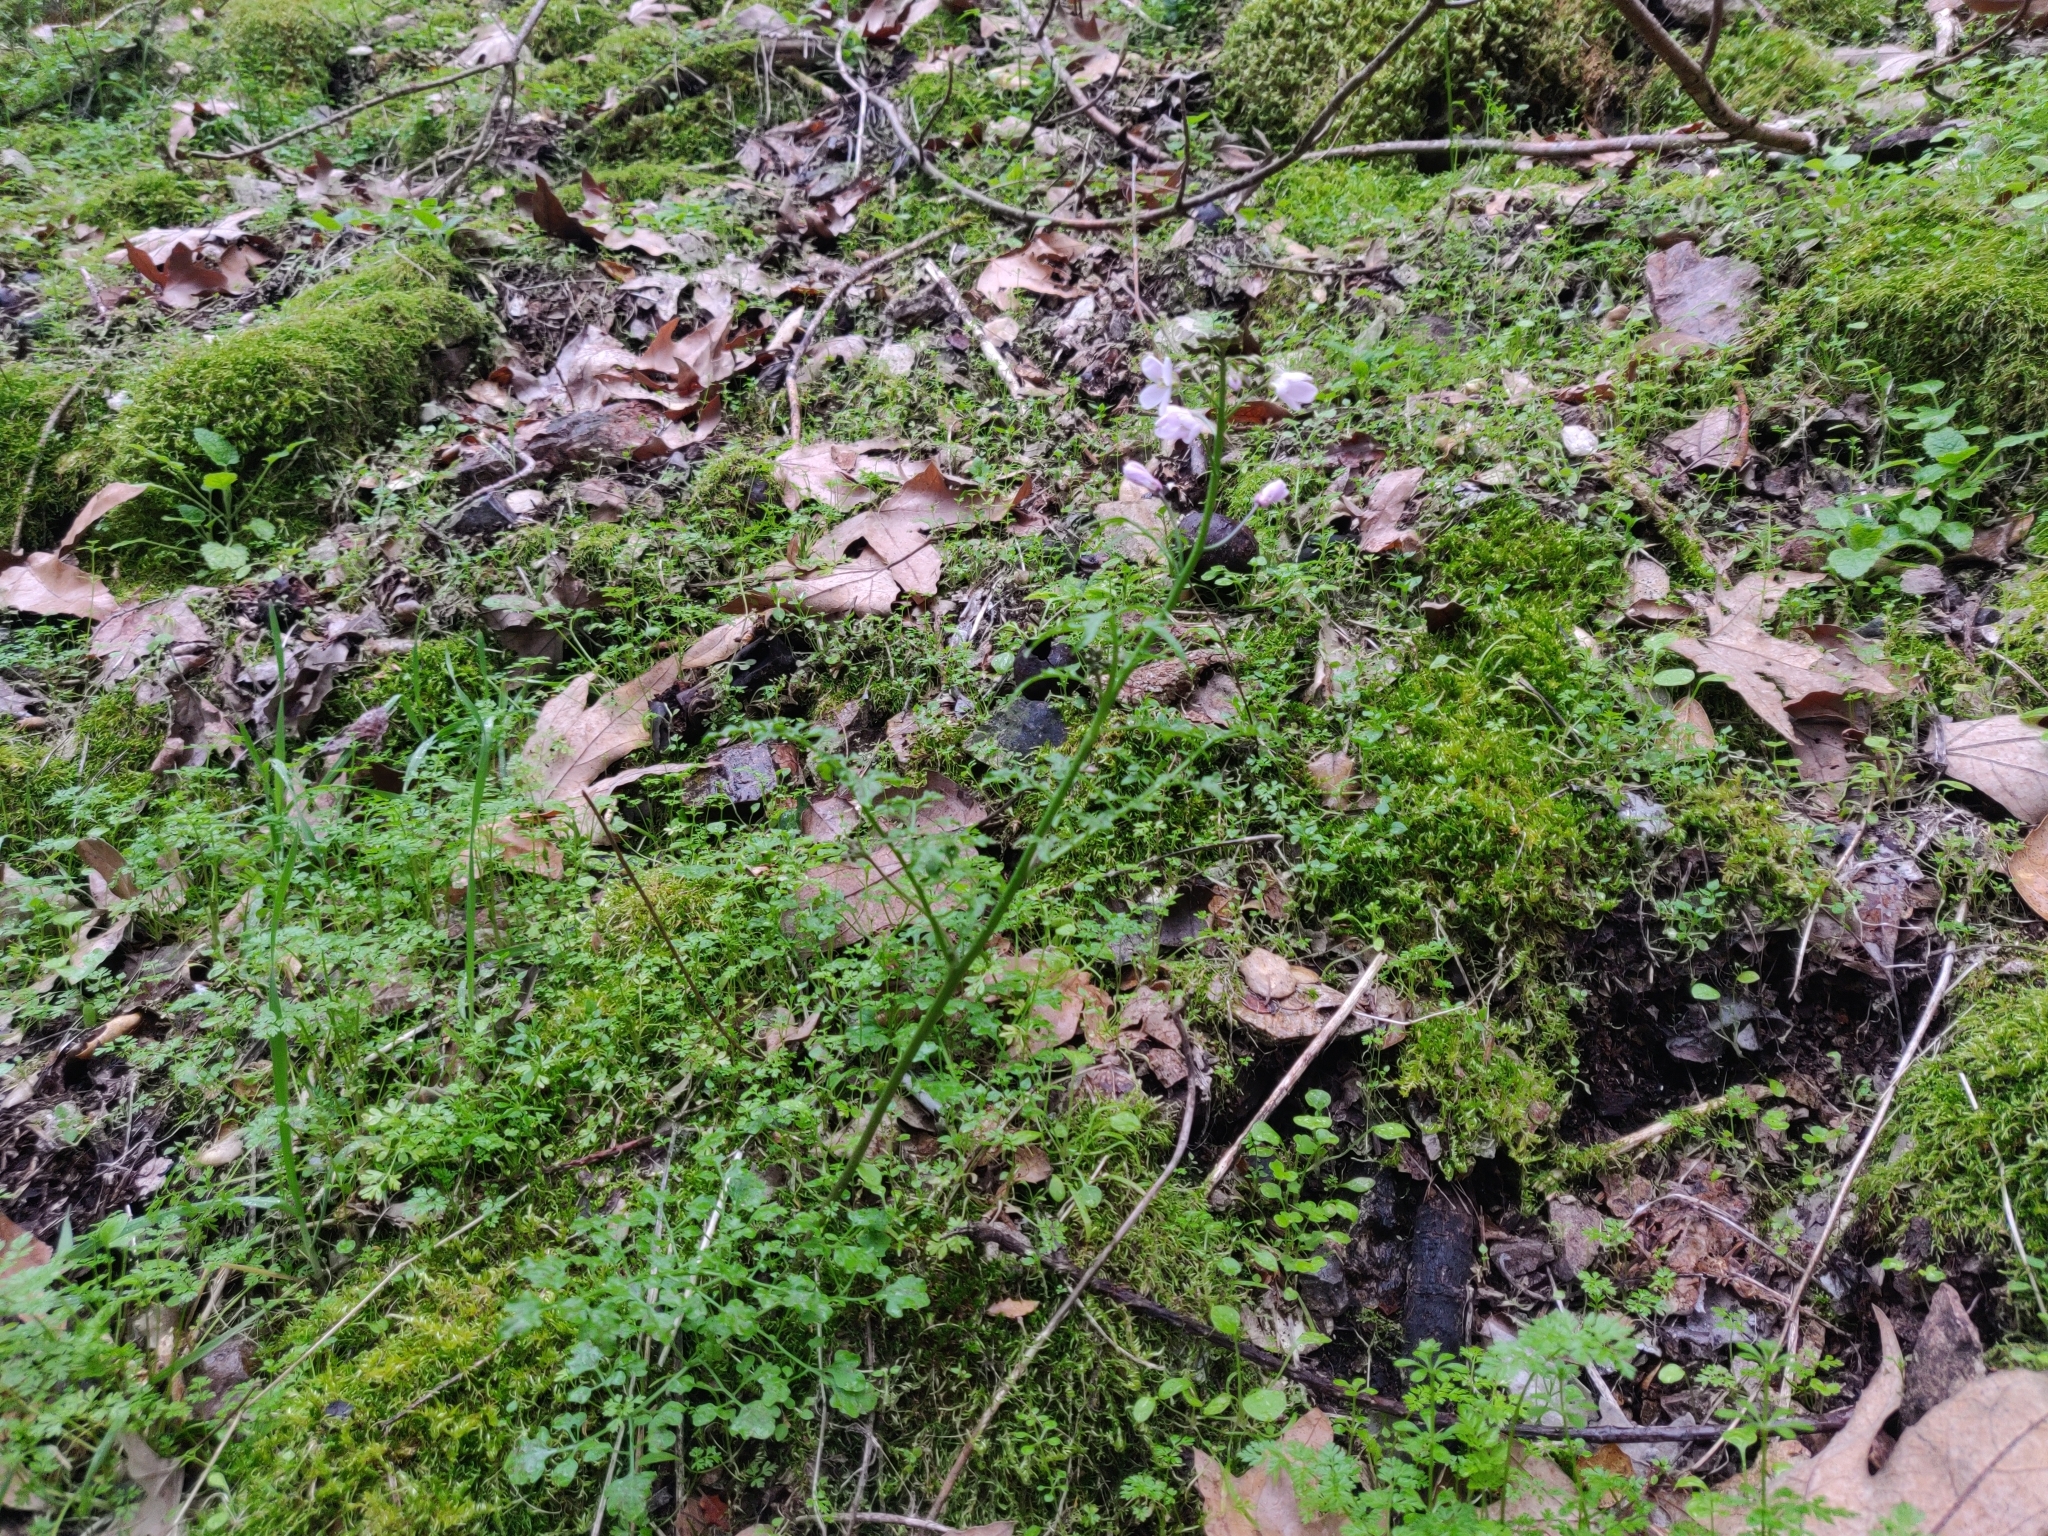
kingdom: Plantae
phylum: Tracheophyta
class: Magnoliopsida
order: Brassicales
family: Brassicaceae
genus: Cardamine
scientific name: Cardamine californica
